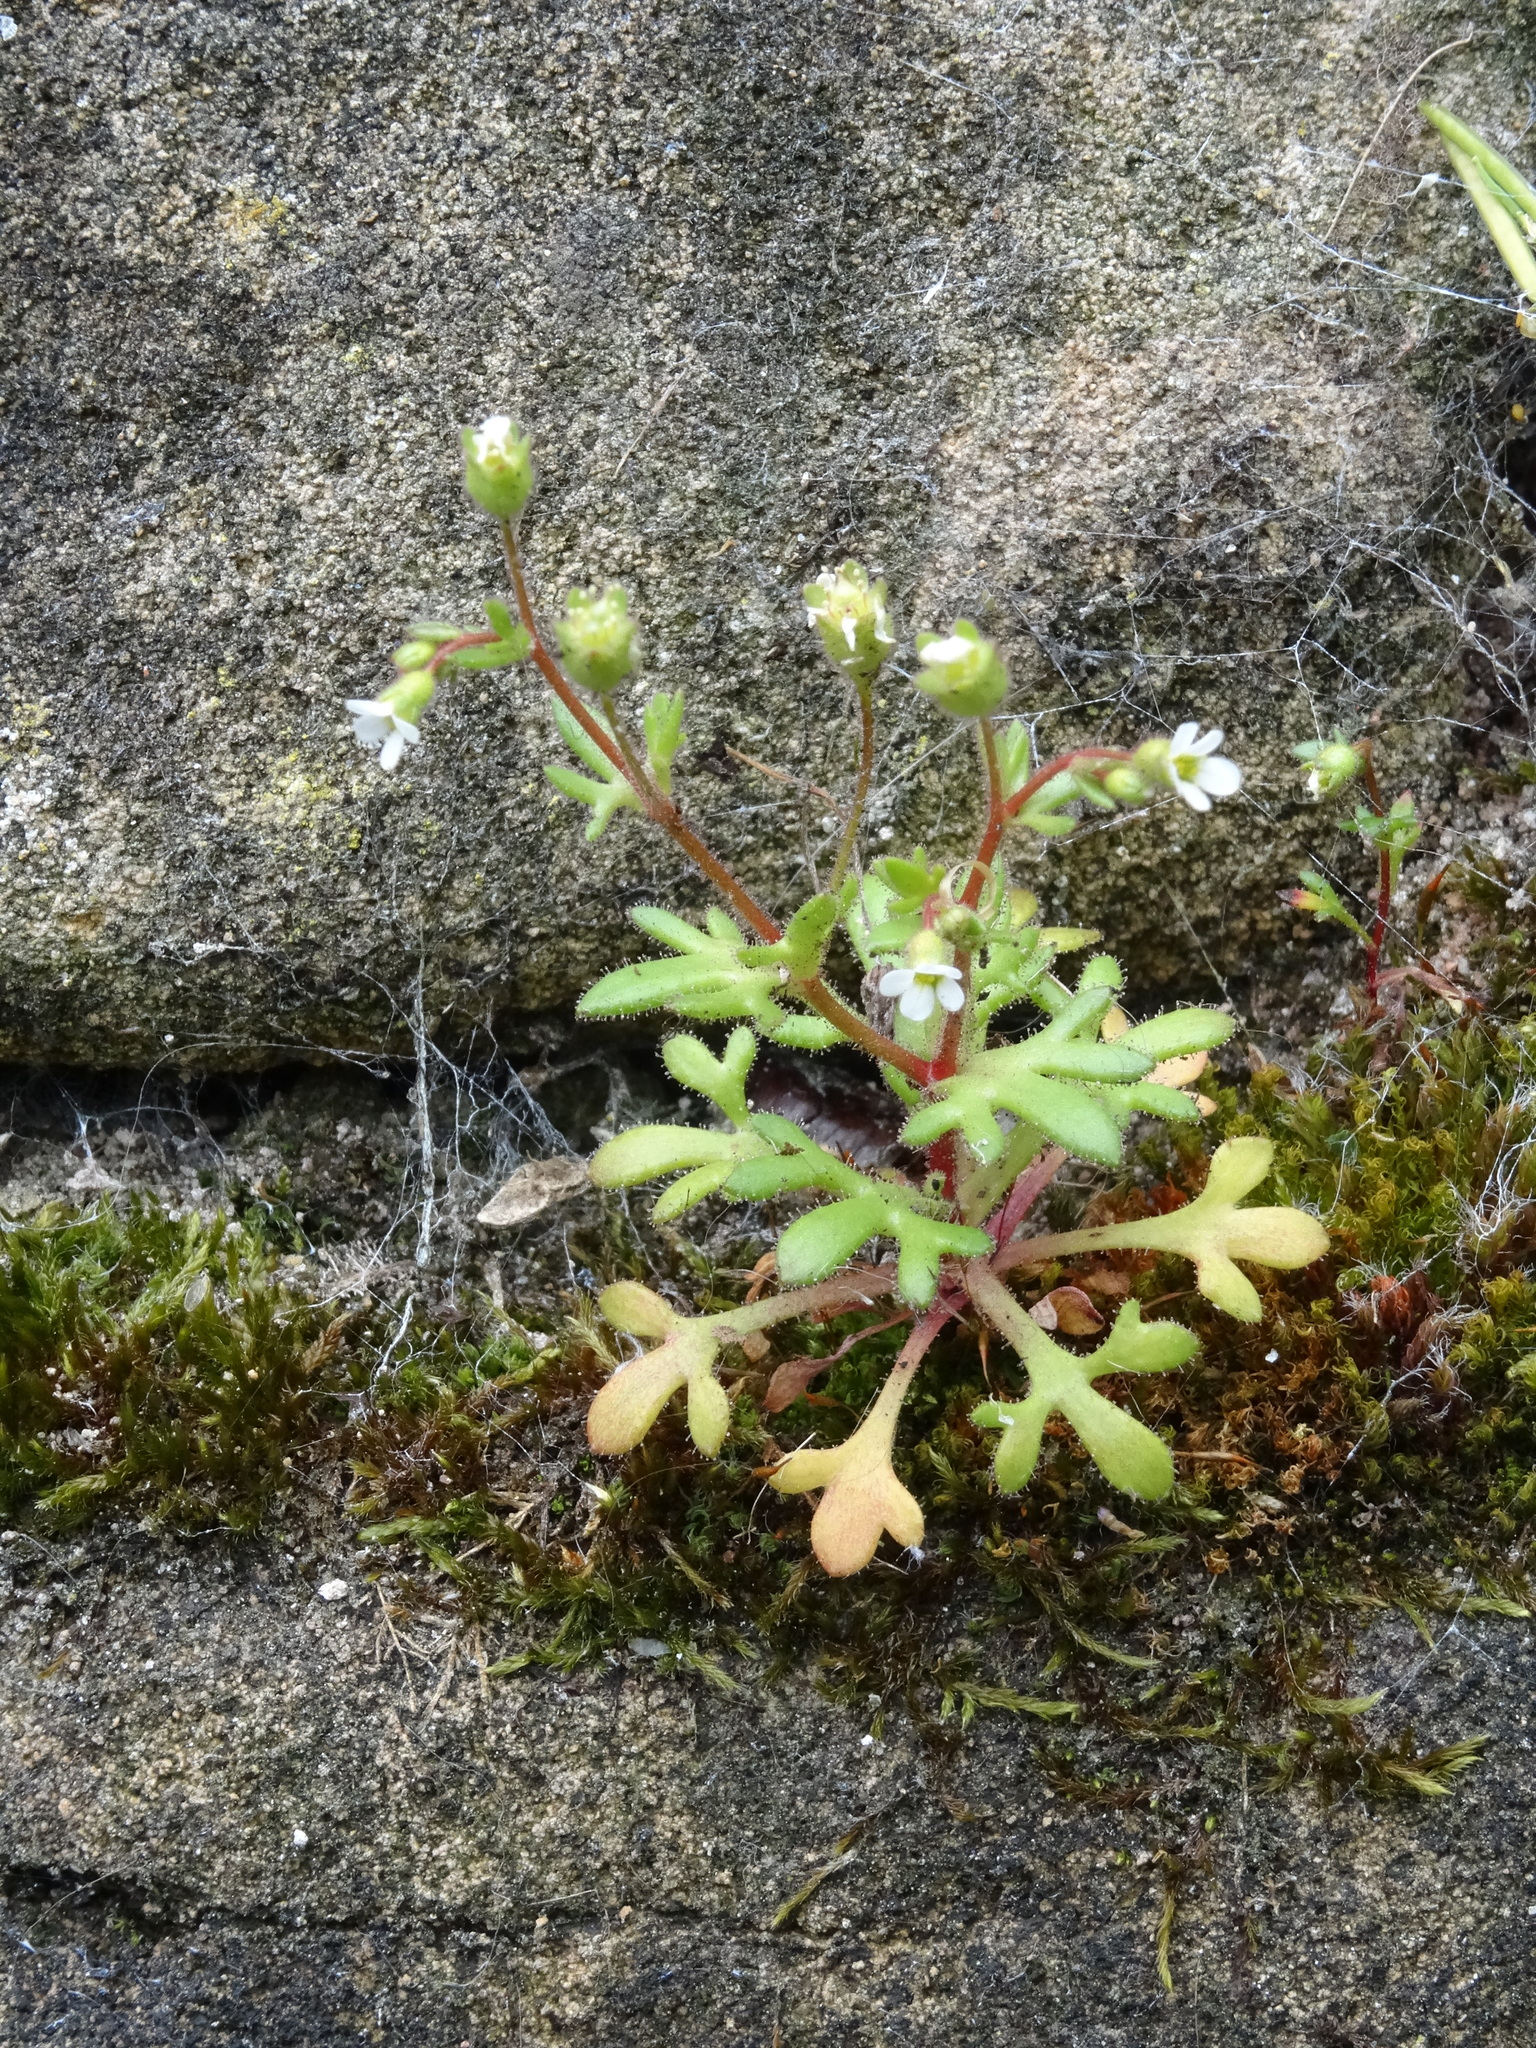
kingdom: Plantae
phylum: Tracheophyta
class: Magnoliopsida
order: Saxifragales
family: Saxifragaceae
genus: Saxifraga
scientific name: Saxifraga tridactylites
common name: Rue-leaved saxifrage
